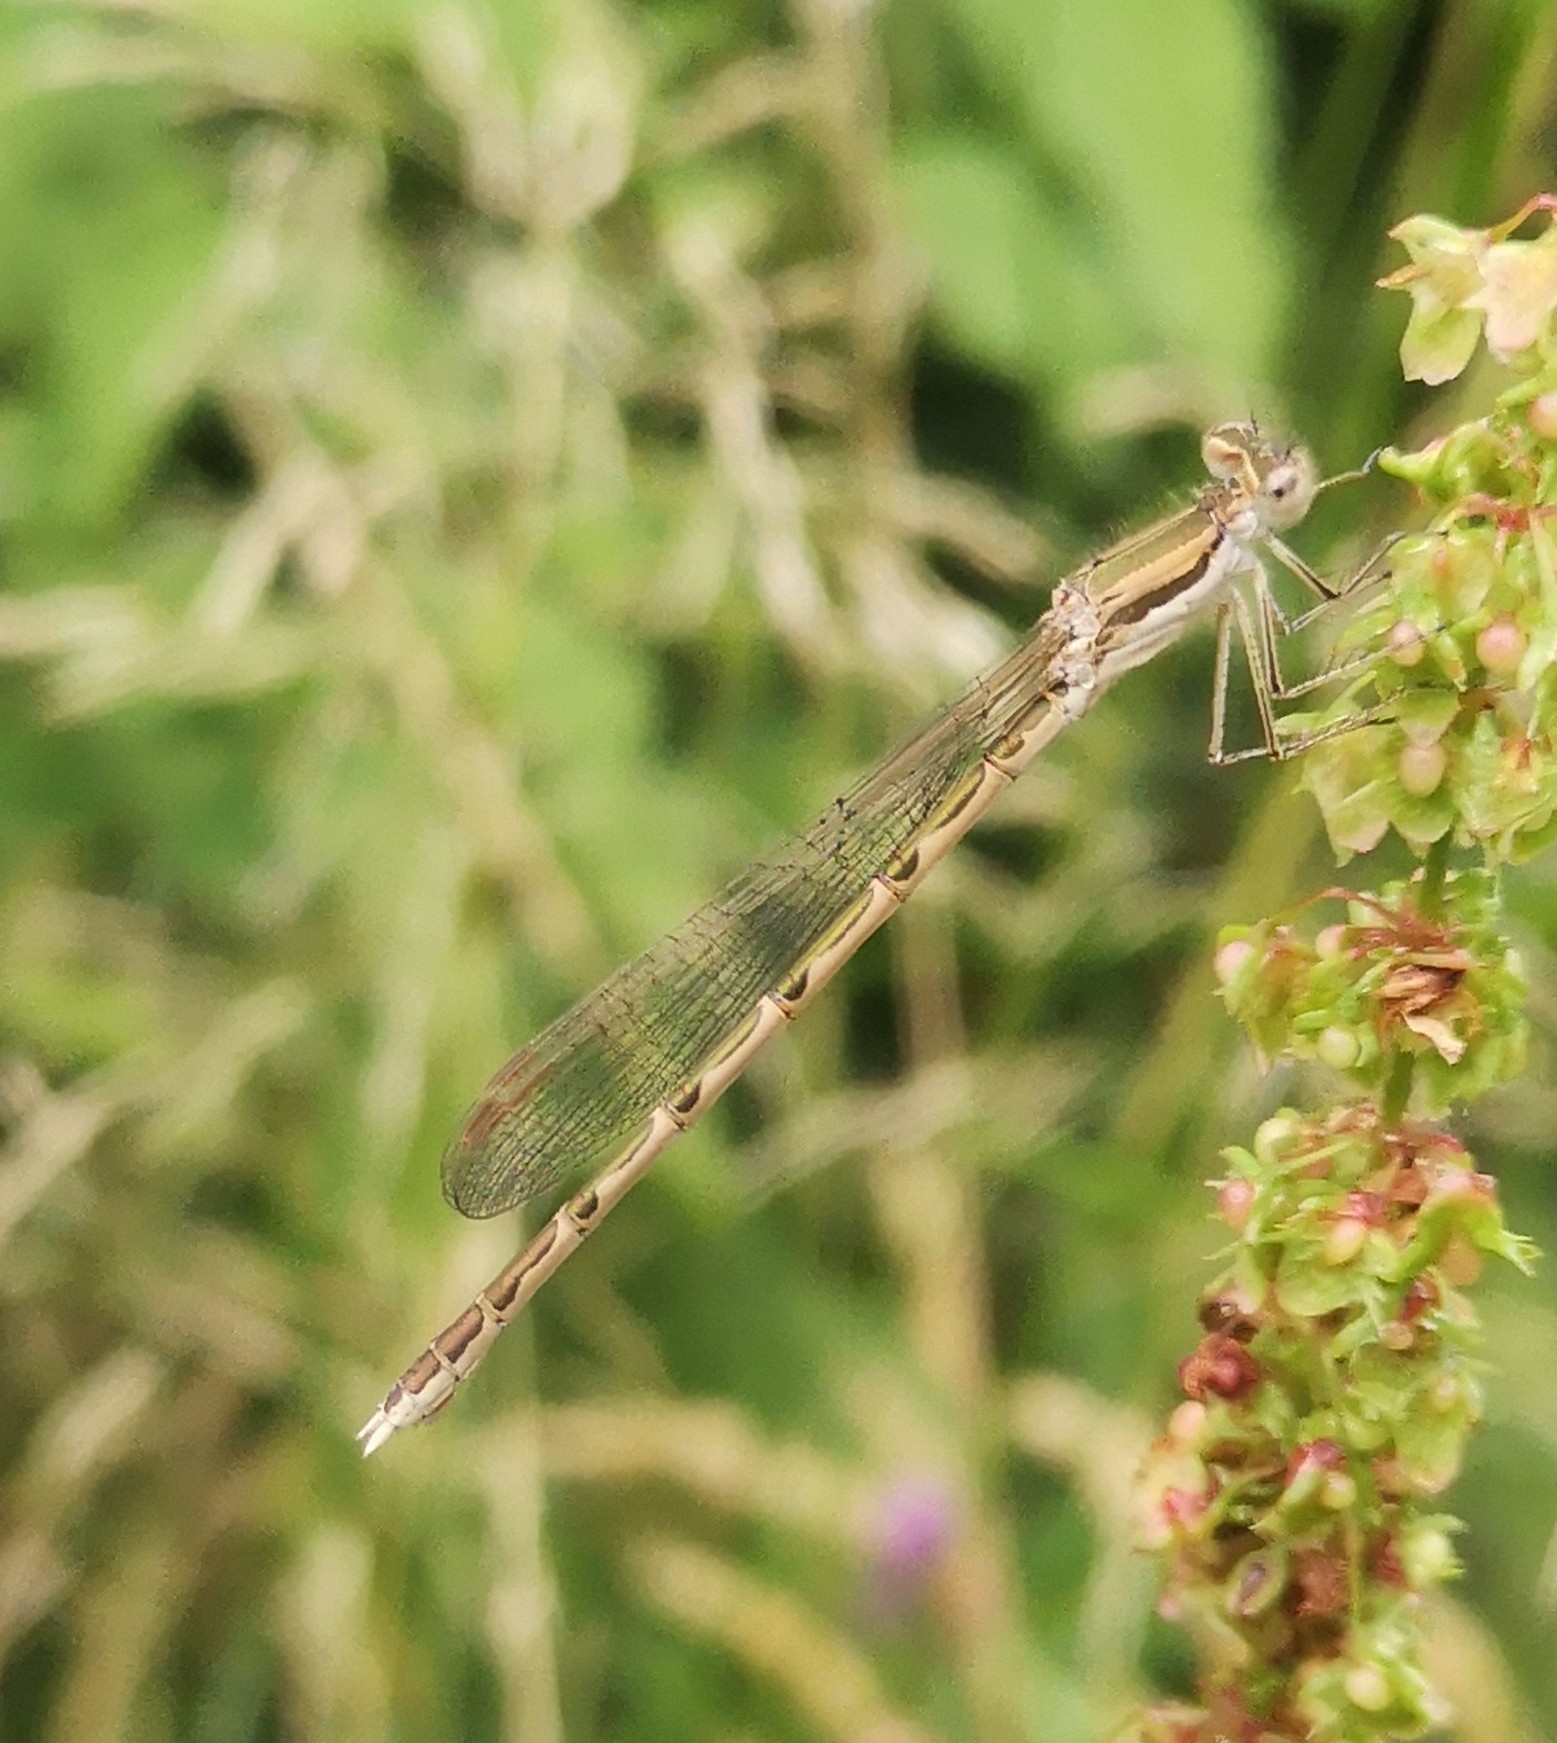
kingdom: Animalia
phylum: Arthropoda
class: Insecta
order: Odonata
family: Lestidae
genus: Sympecma
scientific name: Sympecma fusca
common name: Common winter damsel
